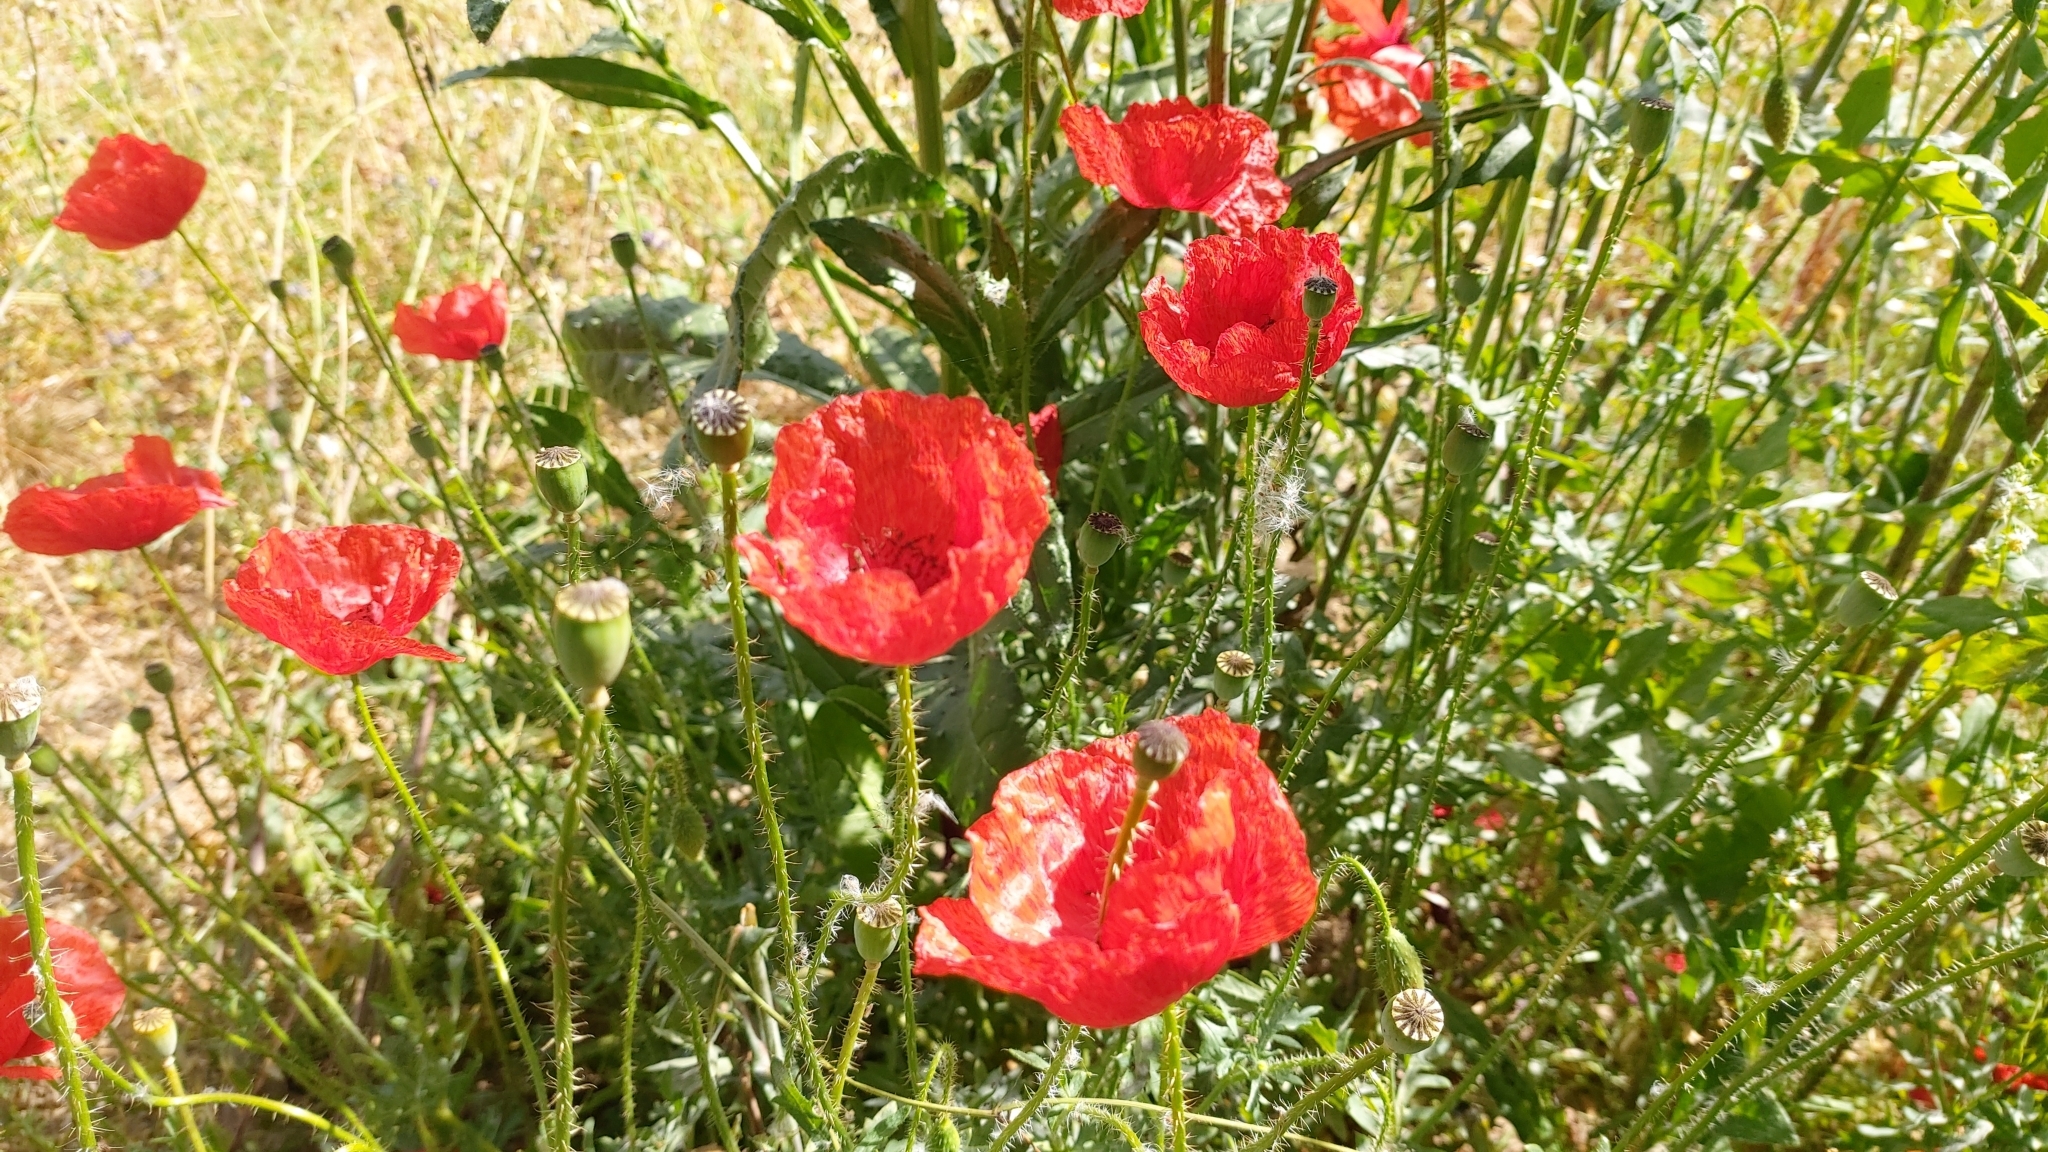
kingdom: Plantae
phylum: Tracheophyta
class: Magnoliopsida
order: Ranunculales
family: Papaveraceae
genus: Papaver
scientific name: Papaver rhoeas
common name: Corn poppy
